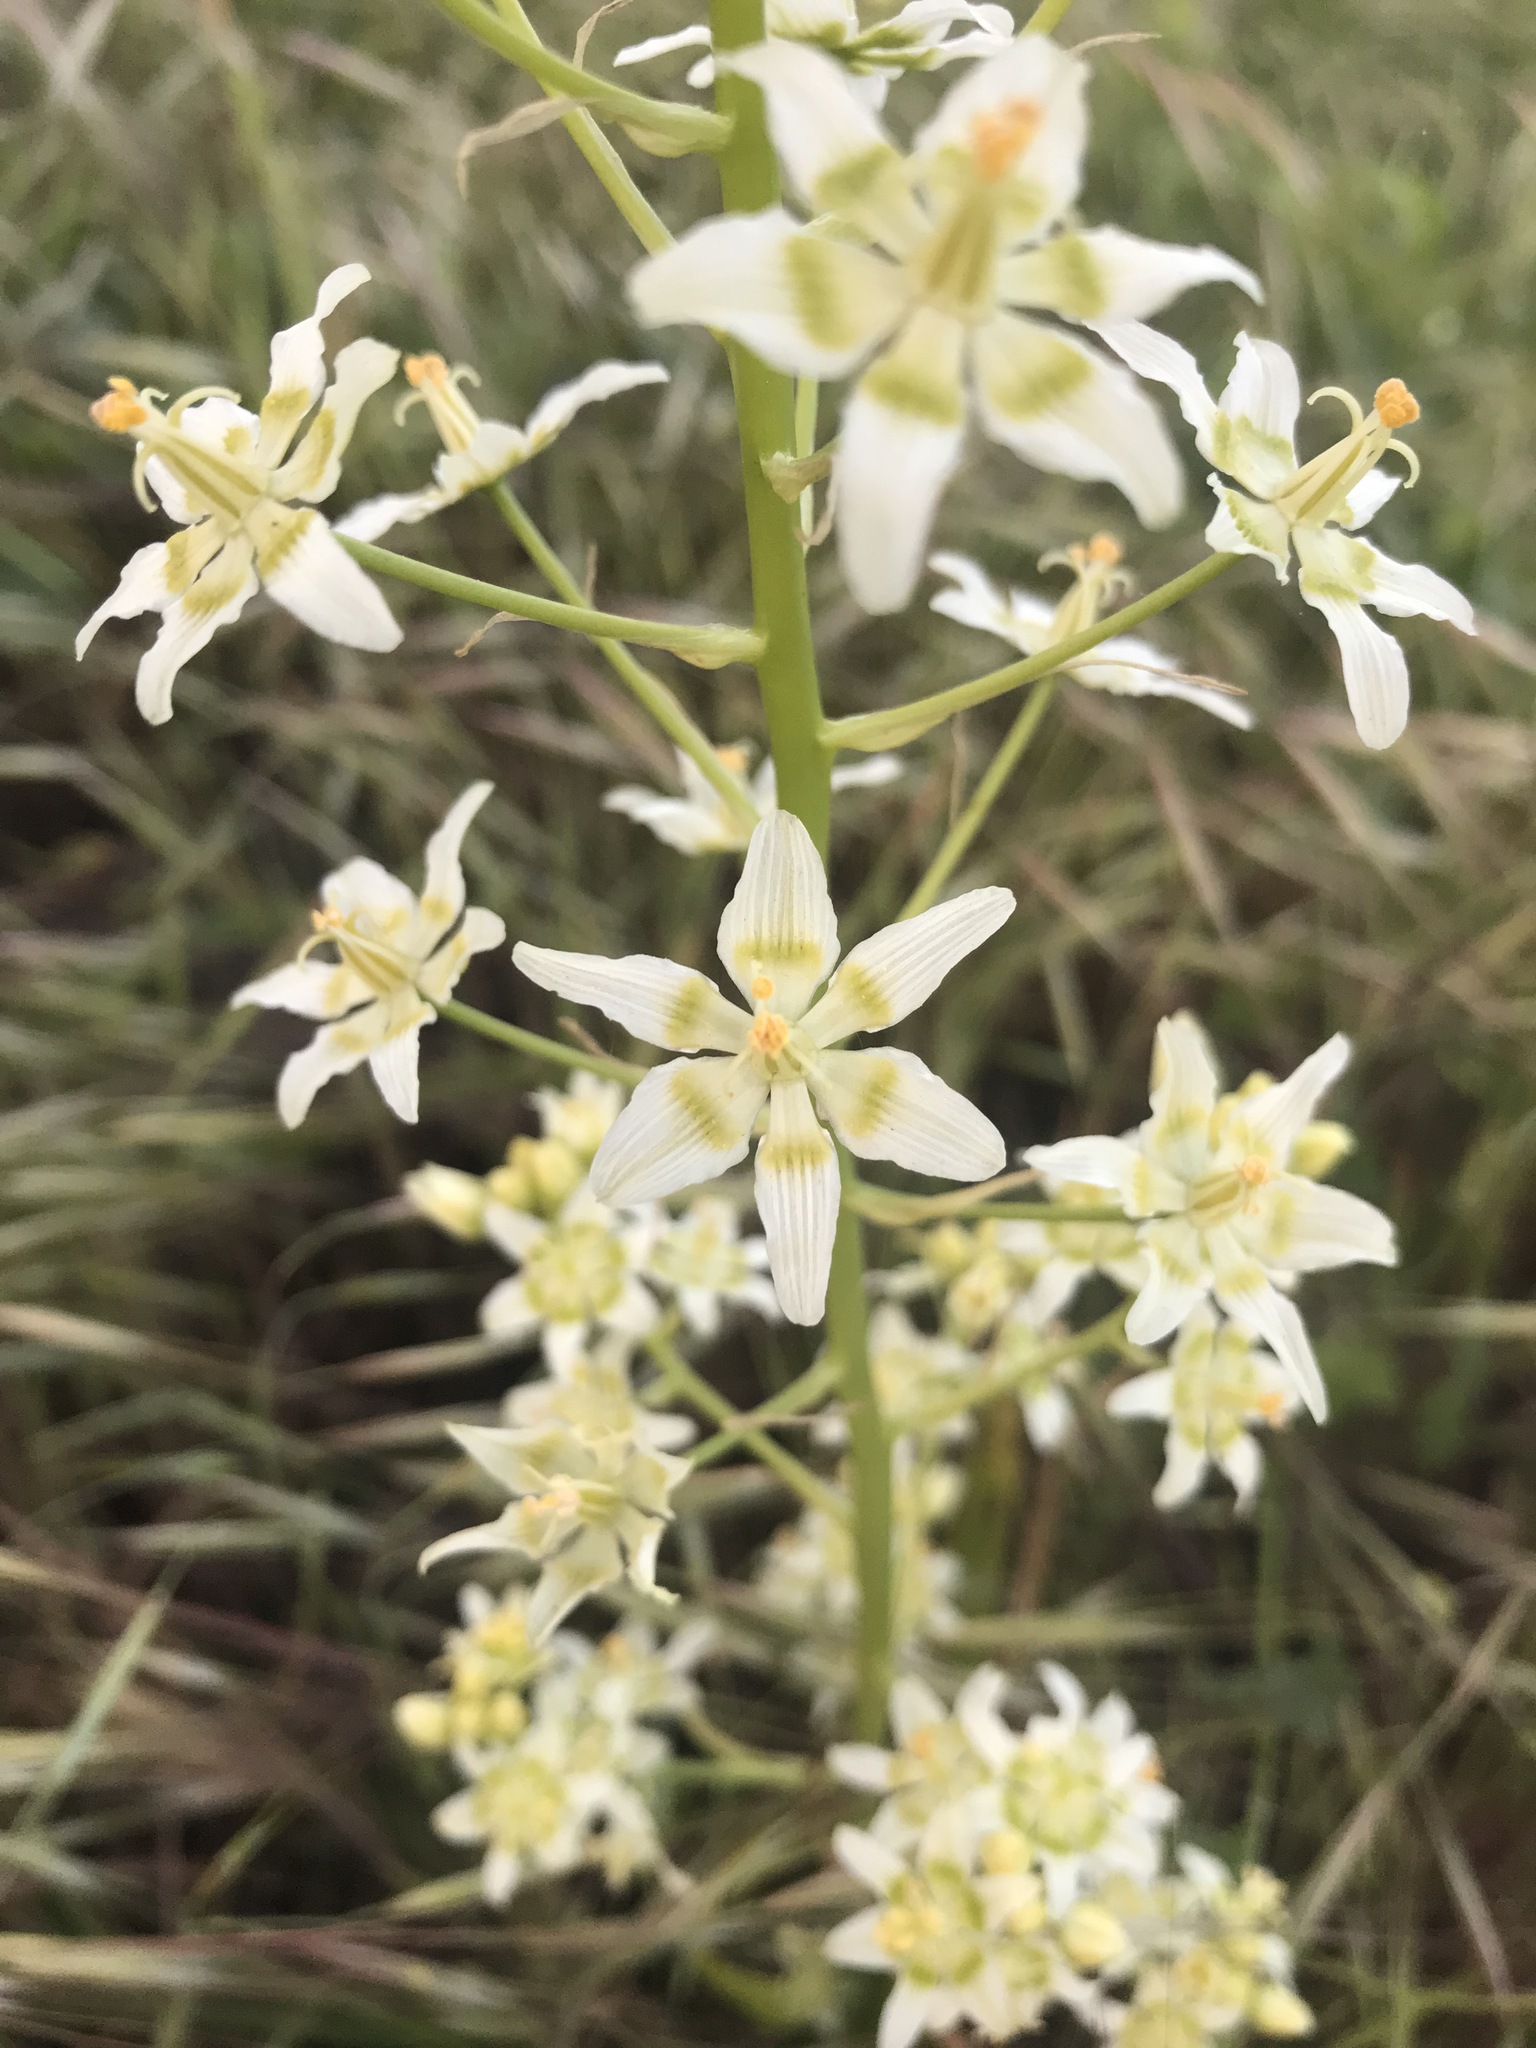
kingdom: Plantae
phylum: Tracheophyta
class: Liliopsida
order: Liliales
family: Melanthiaceae
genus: Toxicoscordion
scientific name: Toxicoscordion fremontii
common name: Fremont's death camas
